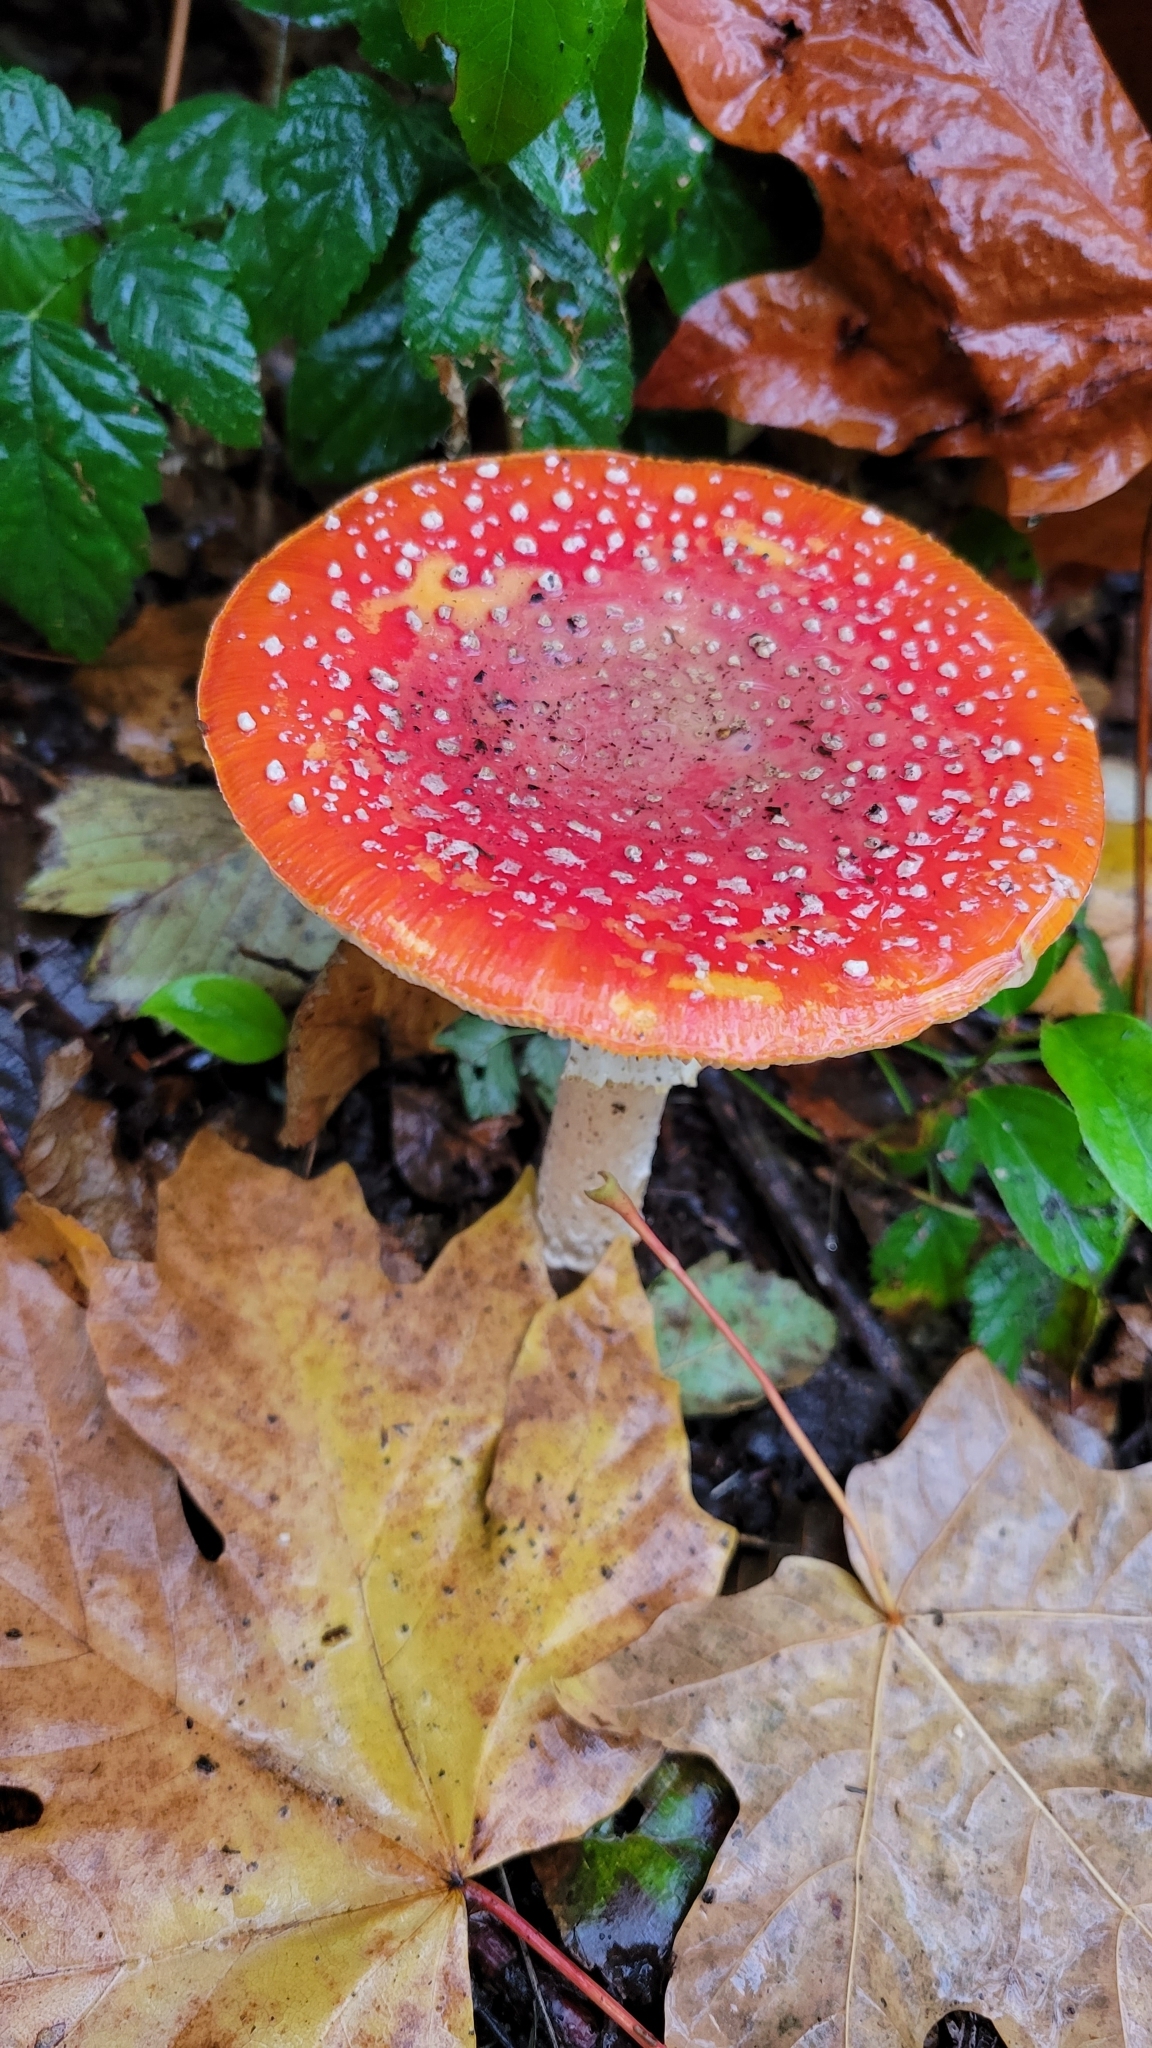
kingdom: Fungi
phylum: Basidiomycota
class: Agaricomycetes
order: Agaricales
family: Amanitaceae
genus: Amanita
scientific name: Amanita muscaria
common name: Fly agaric
